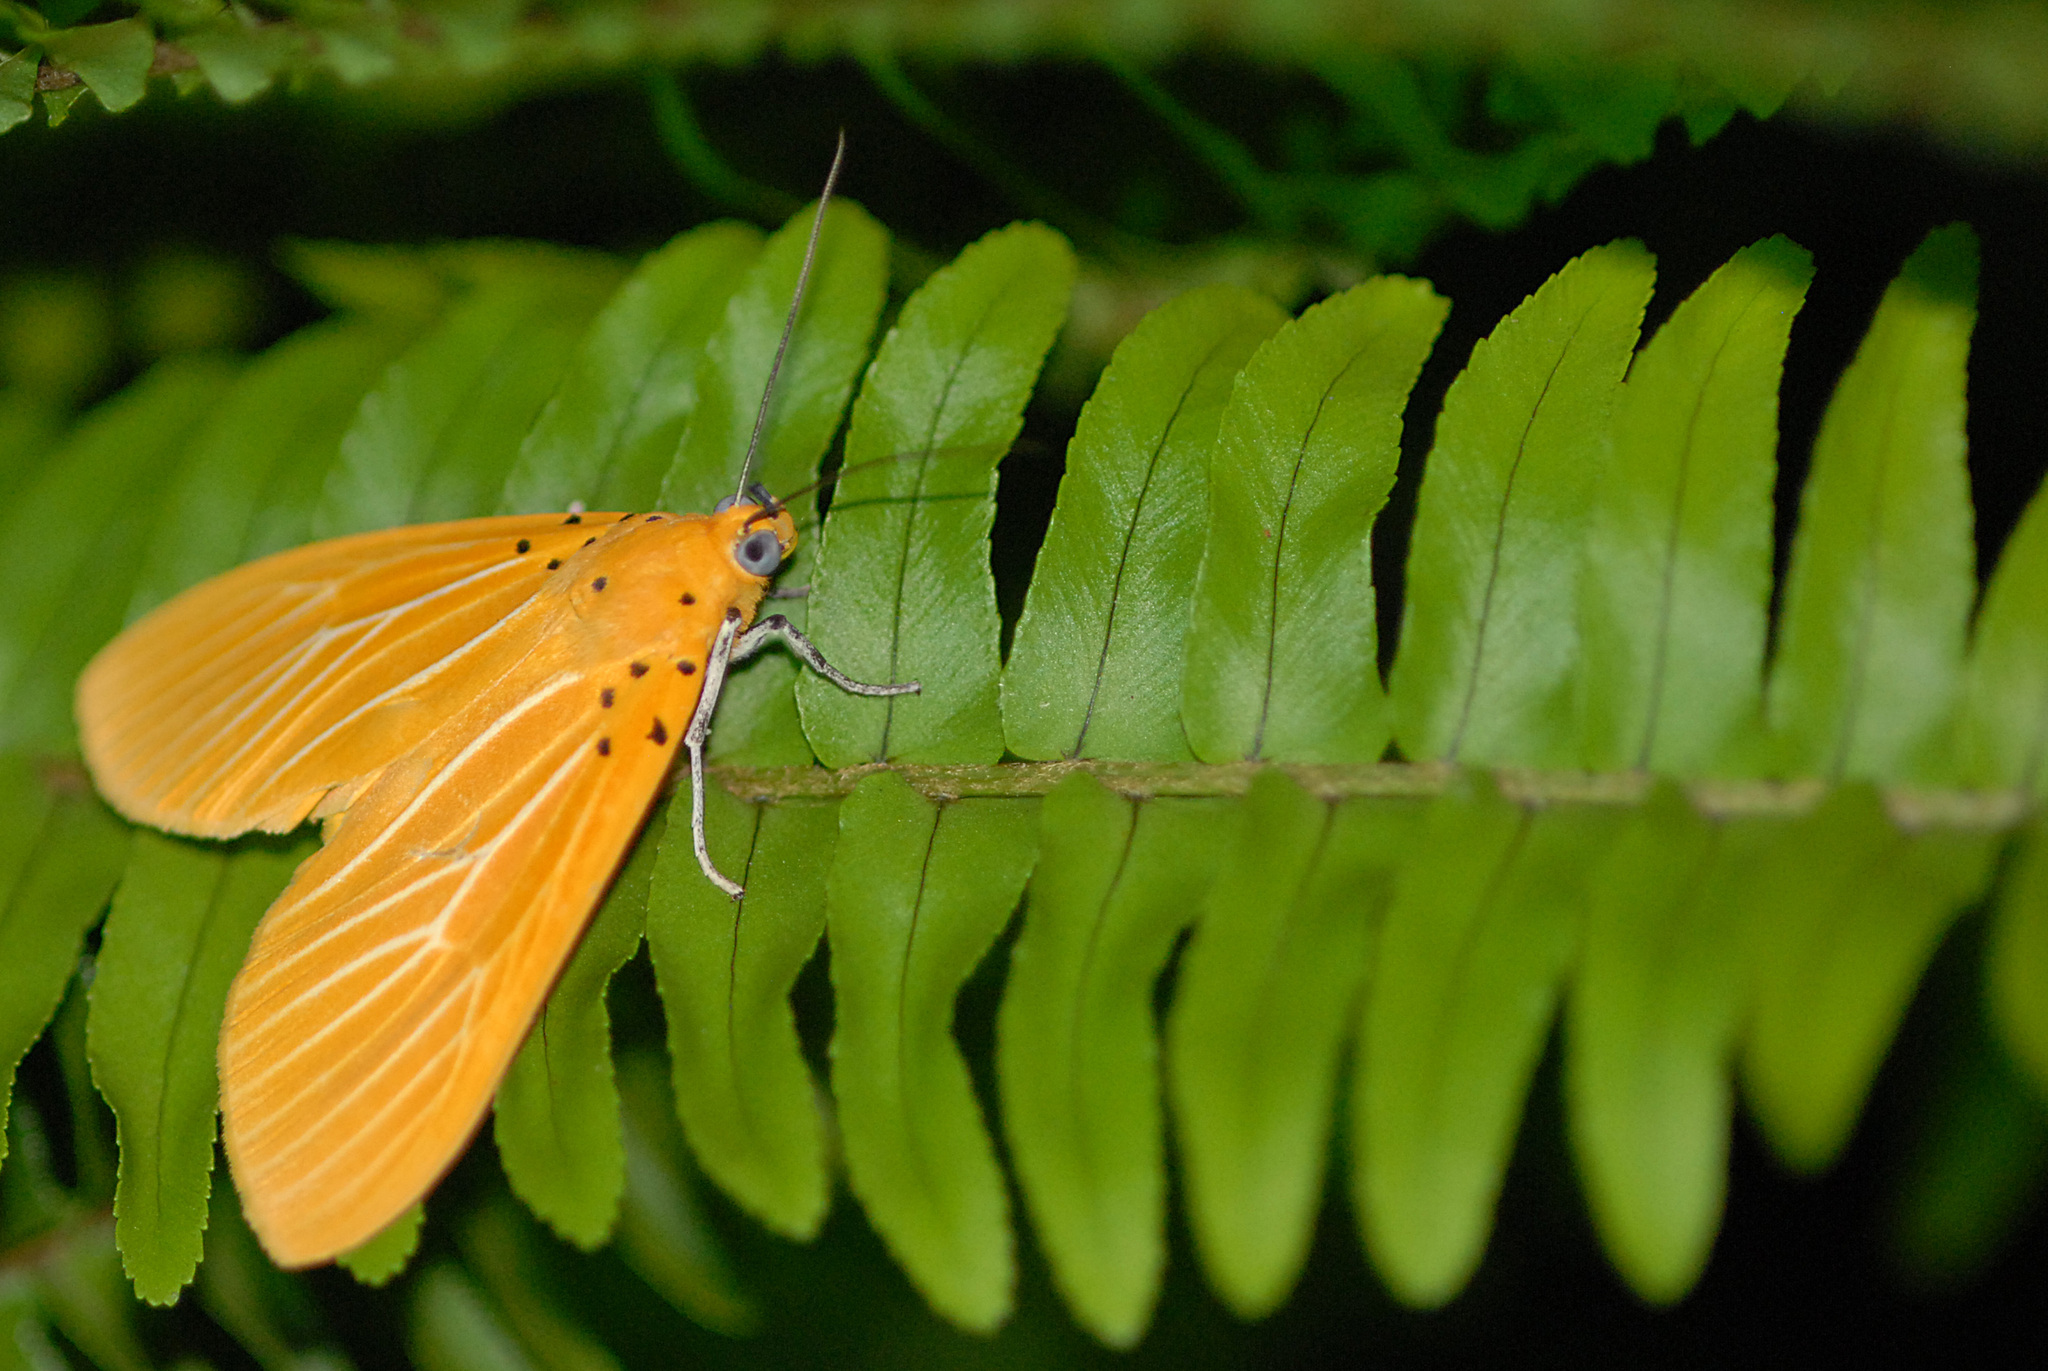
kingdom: Animalia
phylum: Arthropoda
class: Insecta
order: Lepidoptera
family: Erebidae
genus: Asota
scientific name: Asota egens
